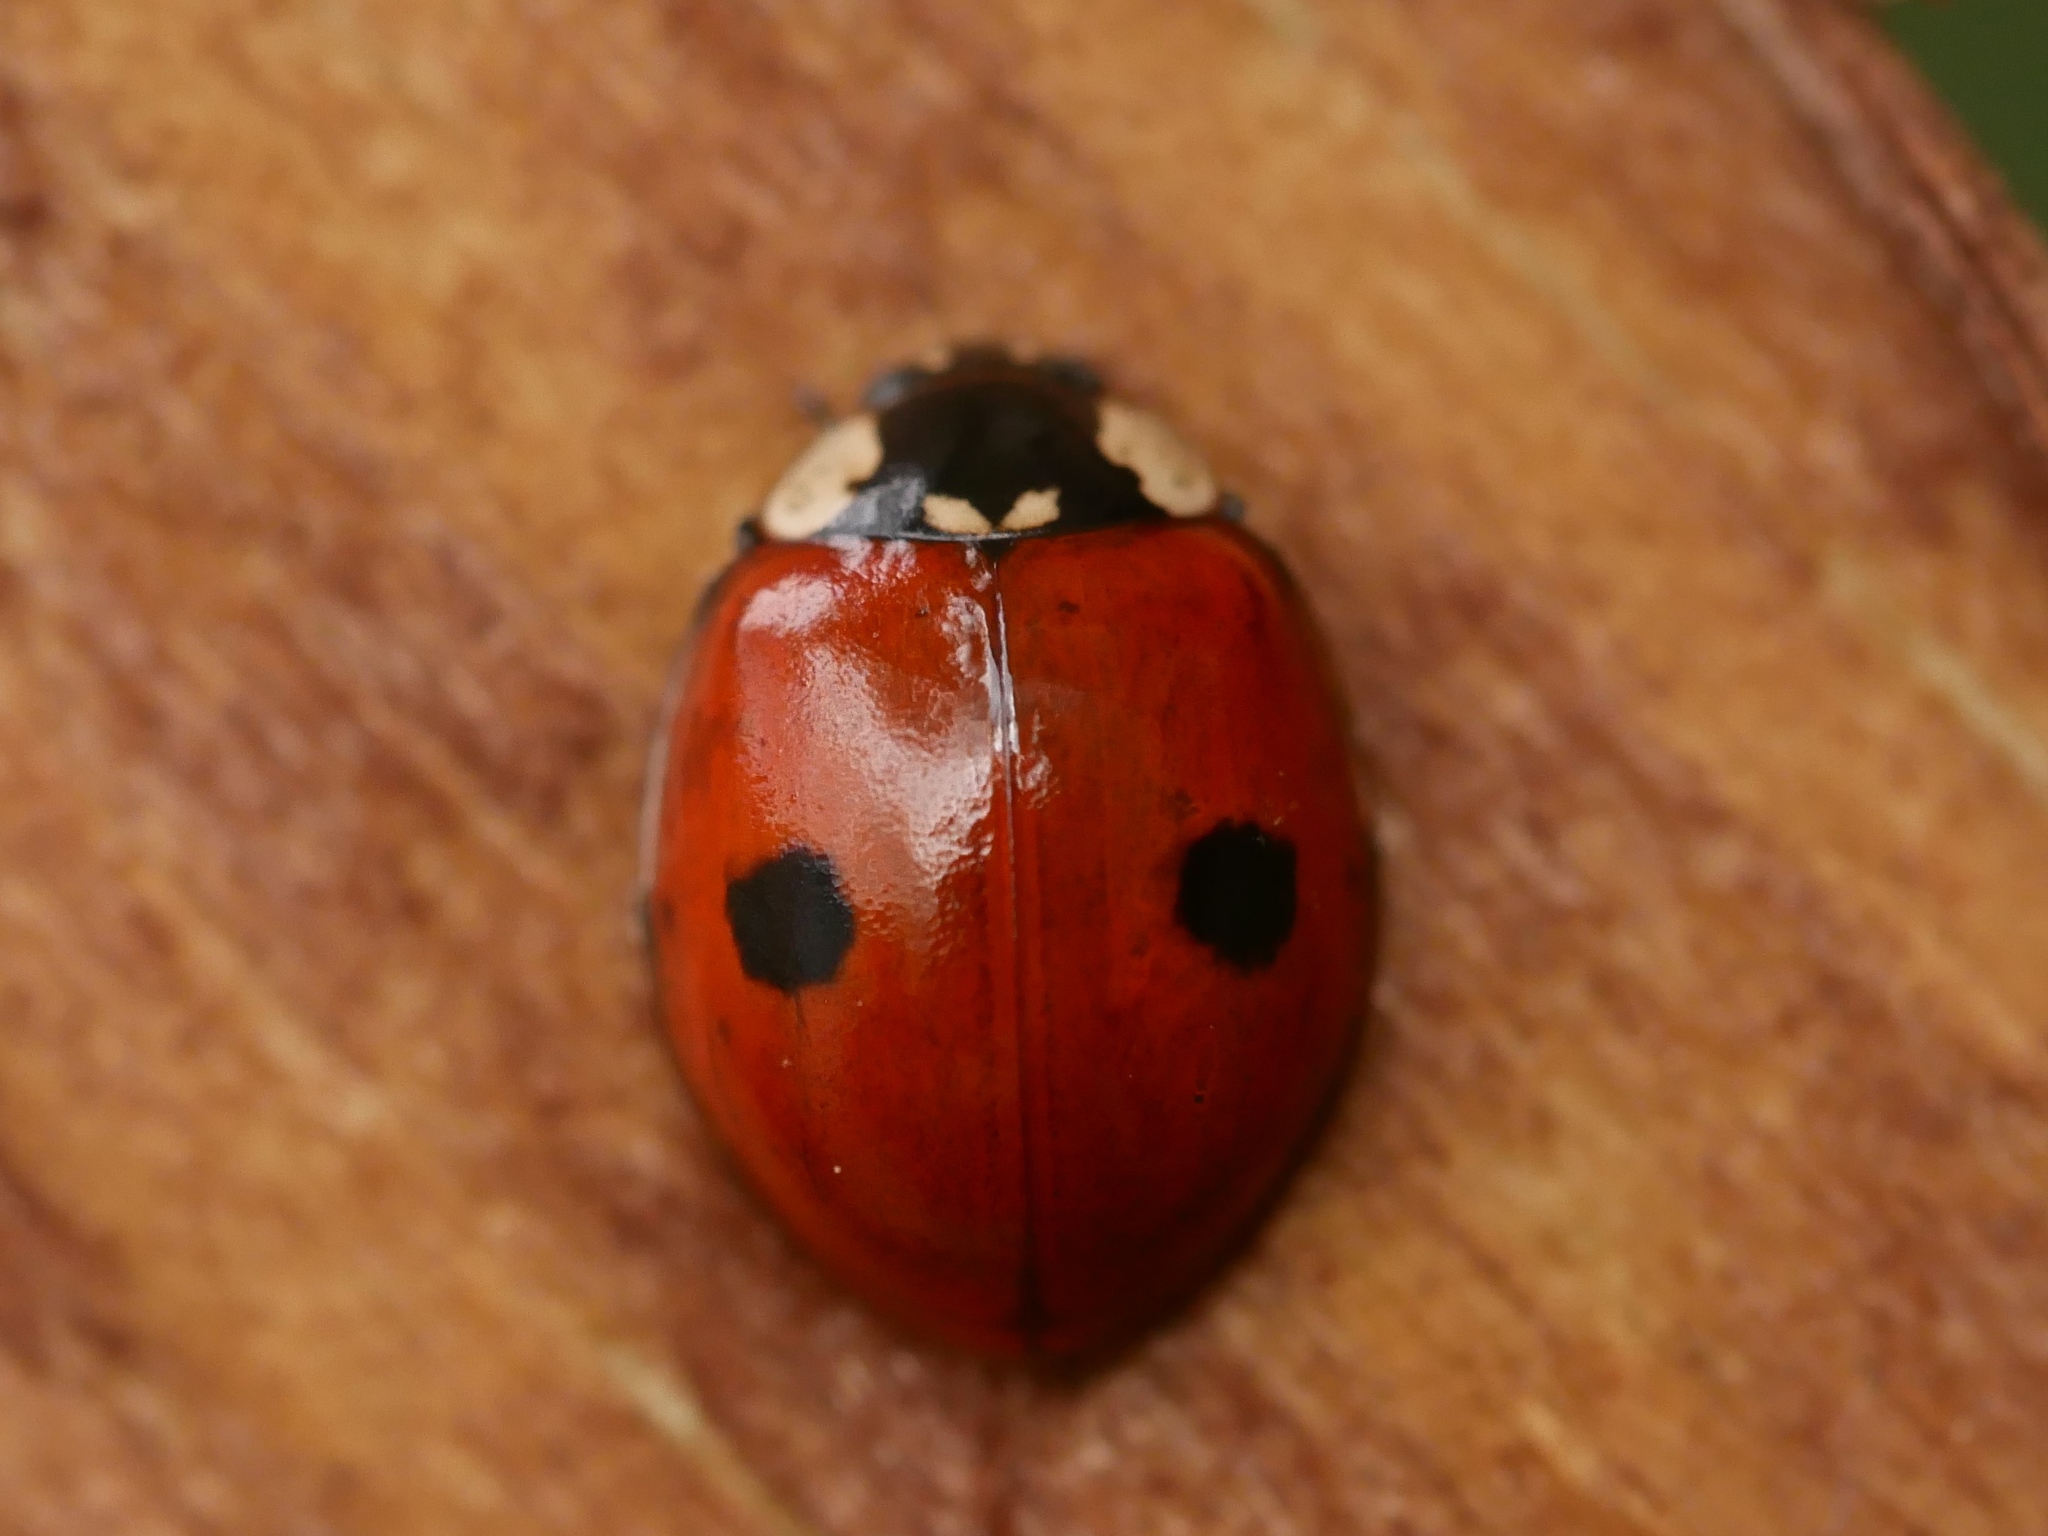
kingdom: Animalia
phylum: Arthropoda
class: Insecta
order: Coleoptera
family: Coccinellidae
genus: Adalia
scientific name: Adalia bipunctata
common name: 2-spot ladybird
